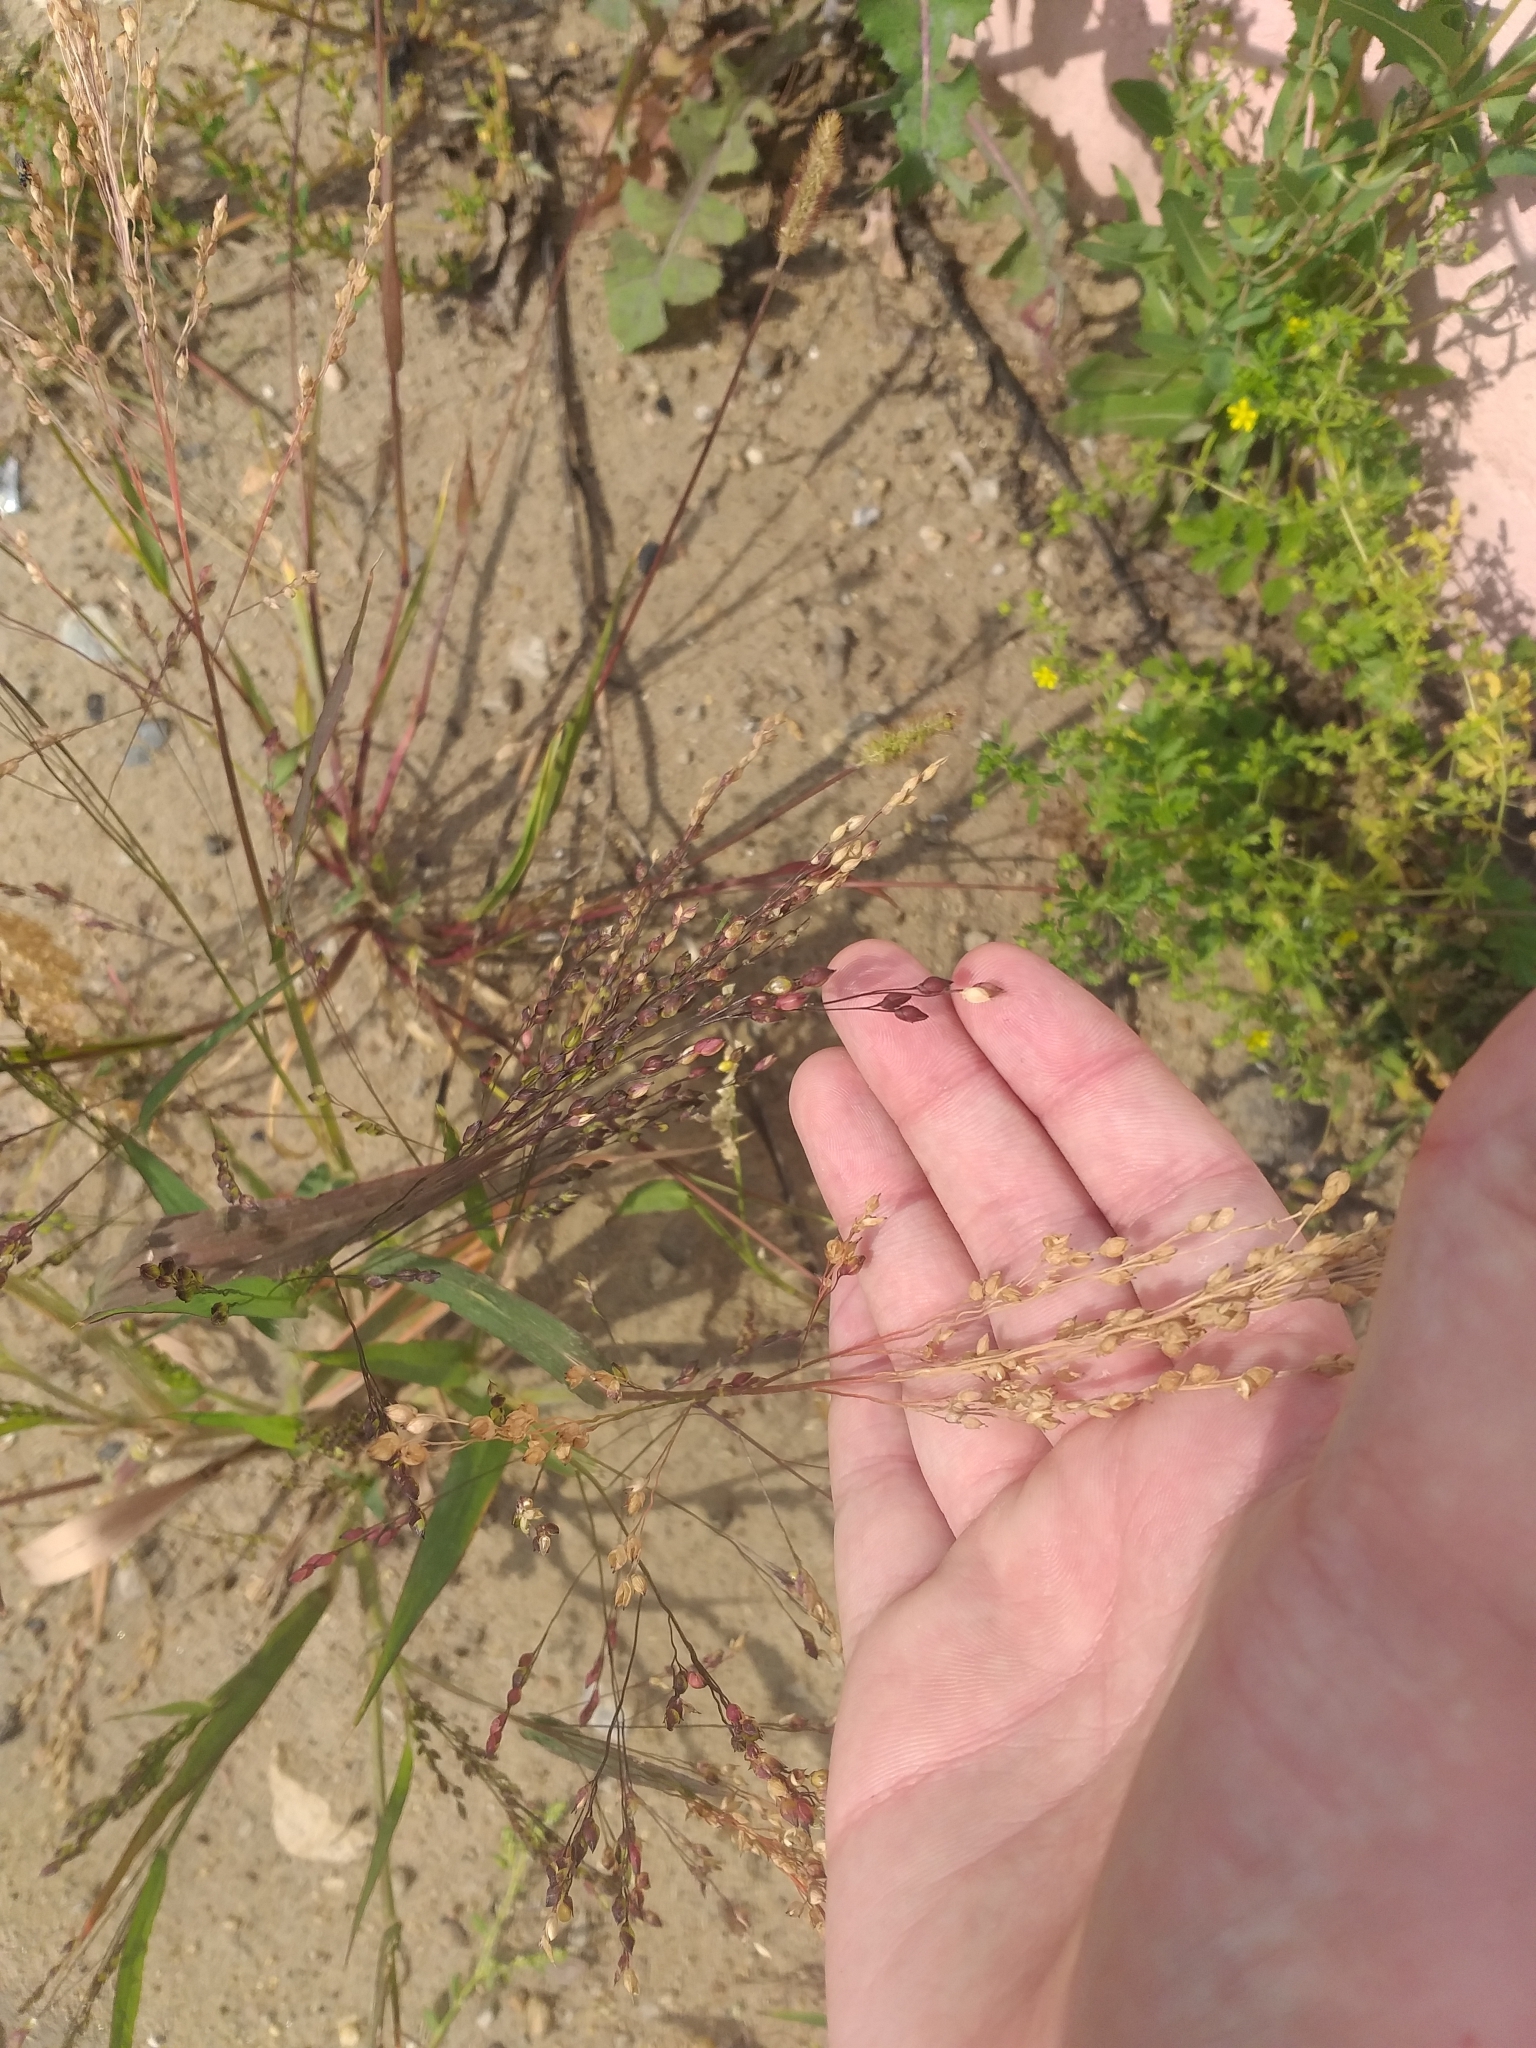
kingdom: Plantae
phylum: Tracheophyta
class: Liliopsida
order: Poales
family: Poaceae
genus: Panicum
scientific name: Panicum miliaceum
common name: Common millet
